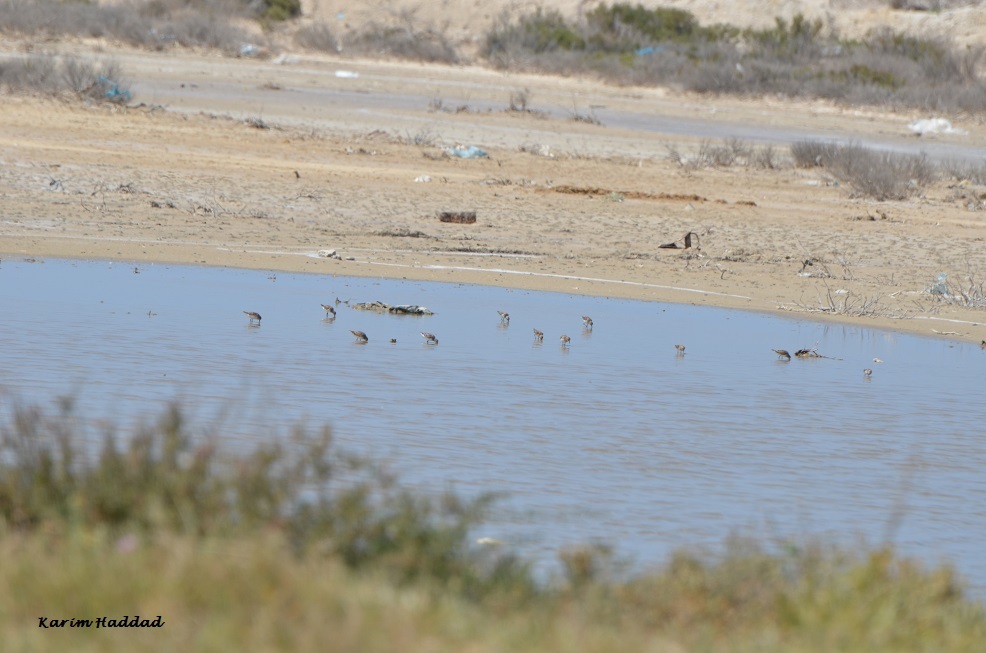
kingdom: Animalia
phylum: Chordata
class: Aves
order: Charadriiformes
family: Scolopacidae
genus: Calidris
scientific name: Calidris minuta
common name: Little stint
